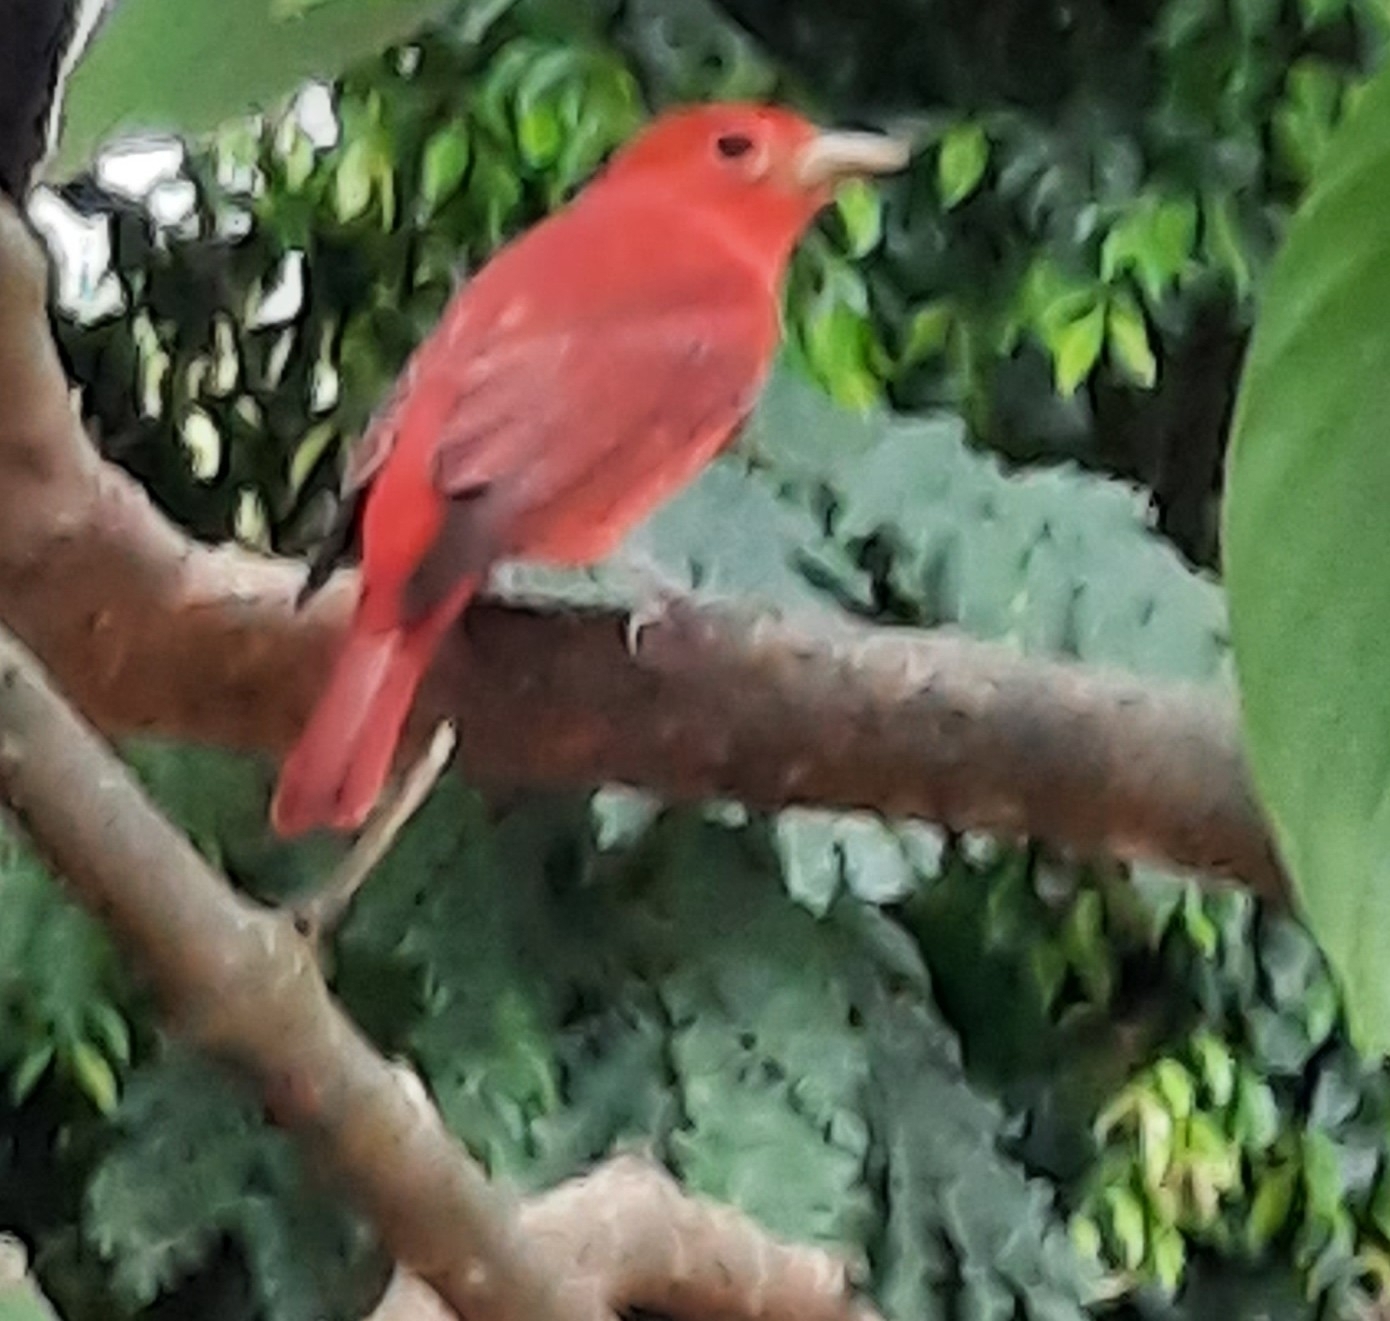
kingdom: Animalia
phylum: Chordata
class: Aves
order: Passeriformes
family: Cardinalidae
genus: Piranga
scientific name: Piranga rubra
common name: Summer tanager
